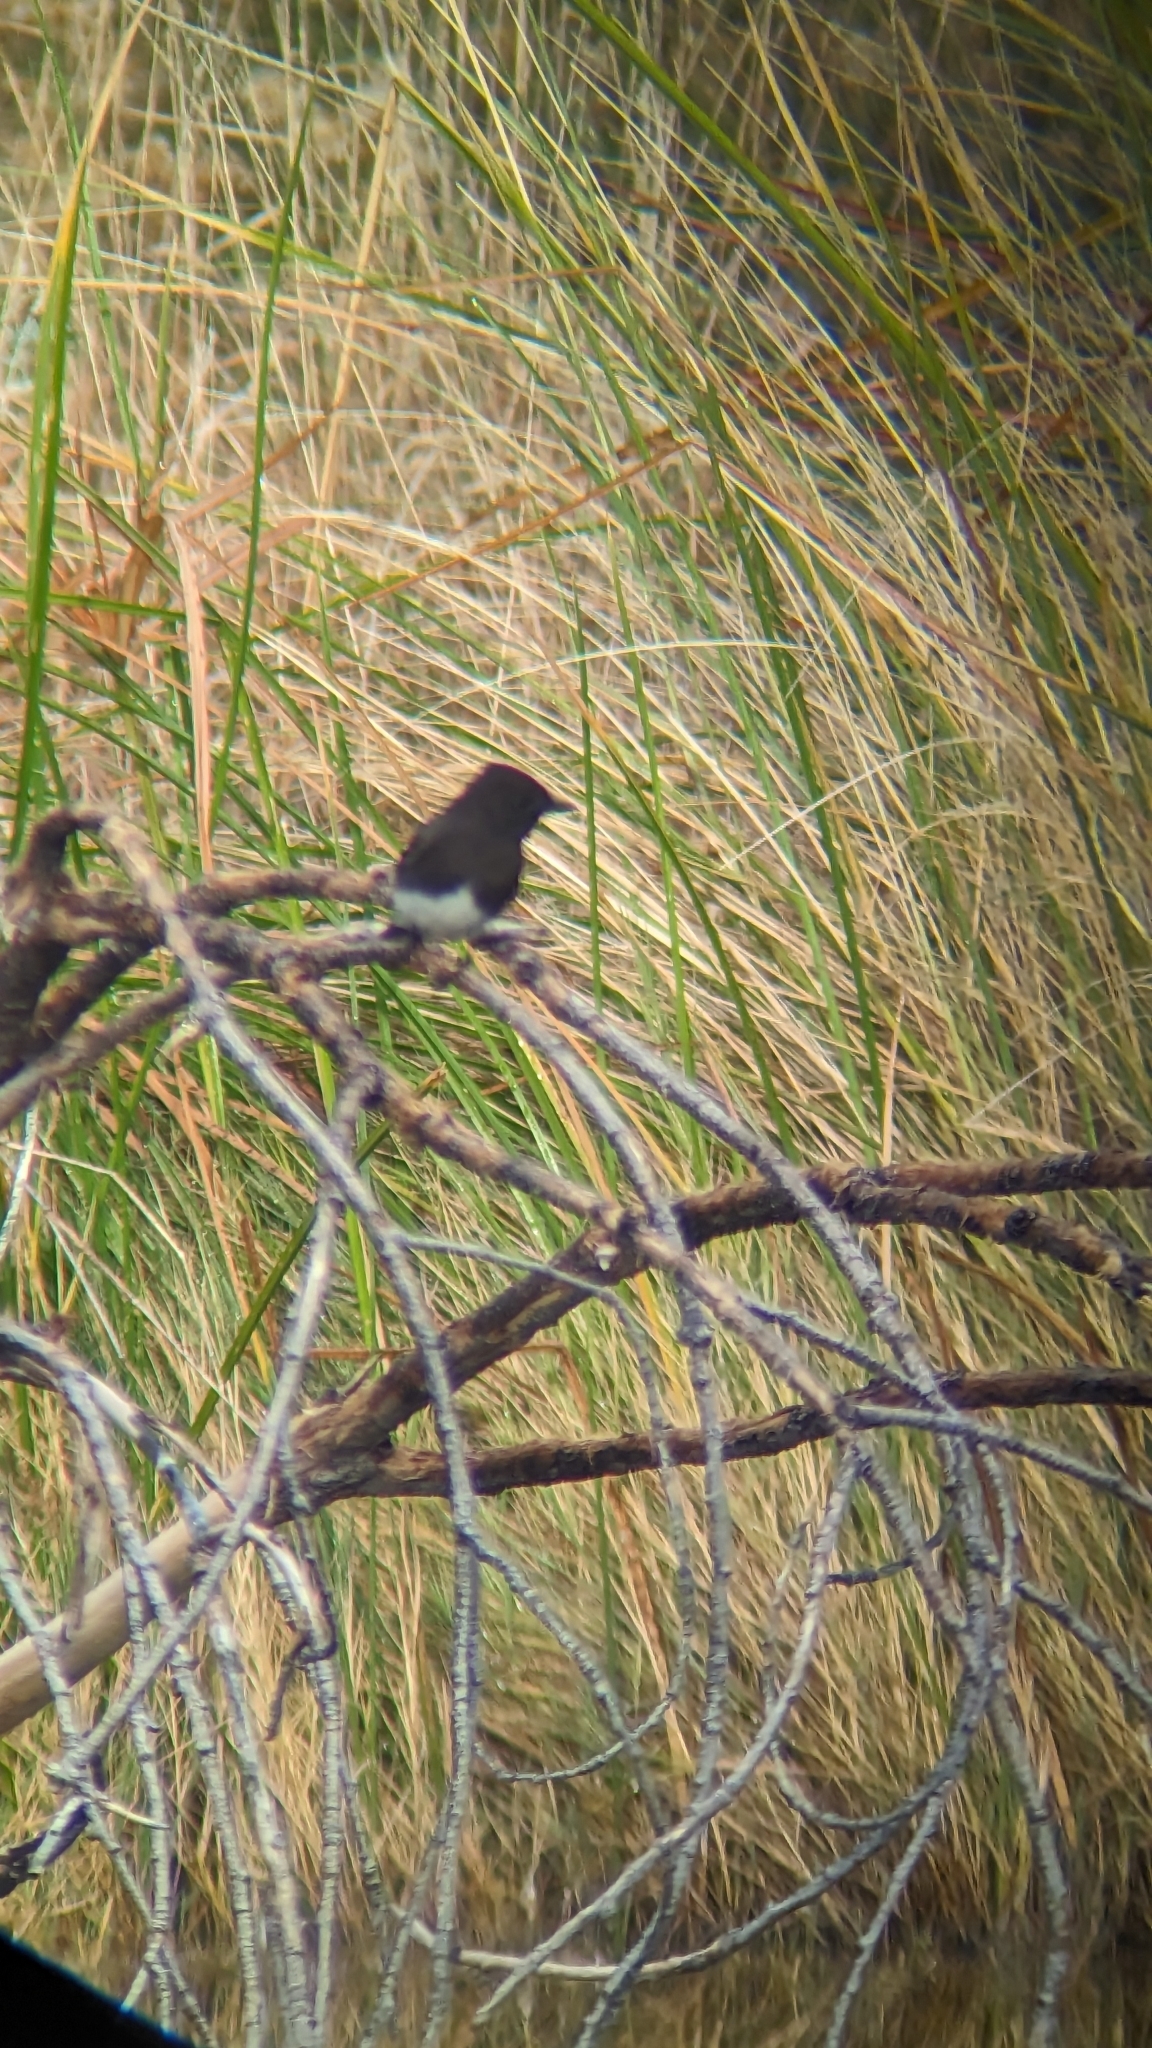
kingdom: Animalia
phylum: Chordata
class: Aves
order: Passeriformes
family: Tyrannidae
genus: Sayornis
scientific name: Sayornis nigricans
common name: Black phoebe
